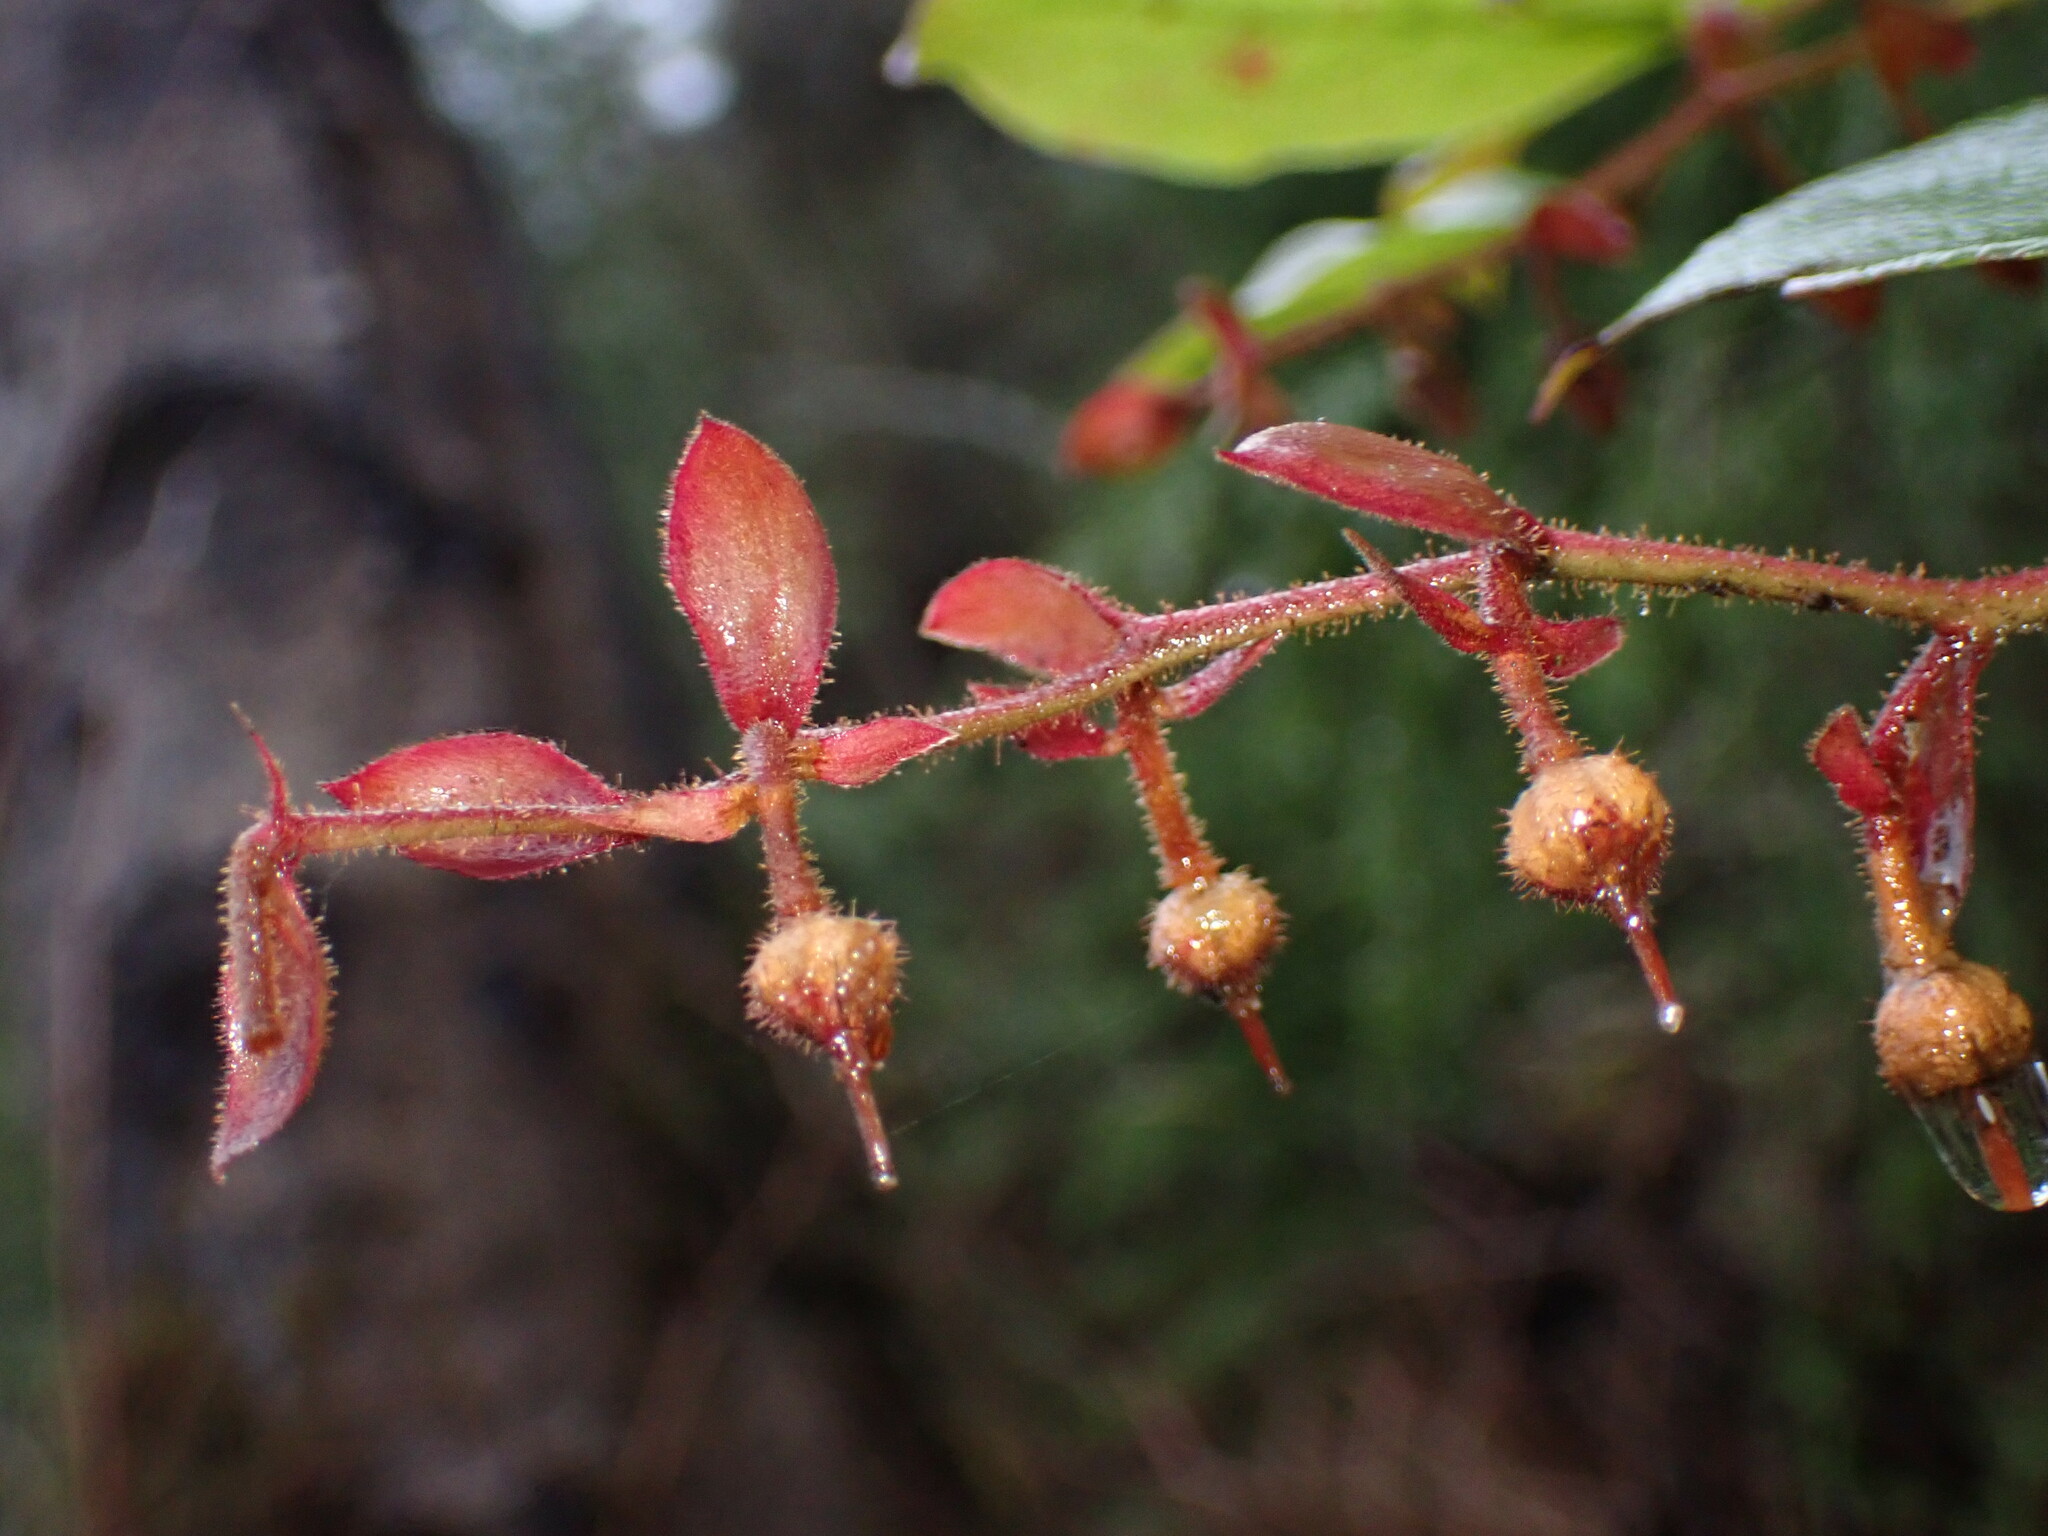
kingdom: Plantae
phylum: Tracheophyta
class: Magnoliopsida
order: Ericales
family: Ericaceae
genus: Gaultheria
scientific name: Gaultheria shallon
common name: Shallon
